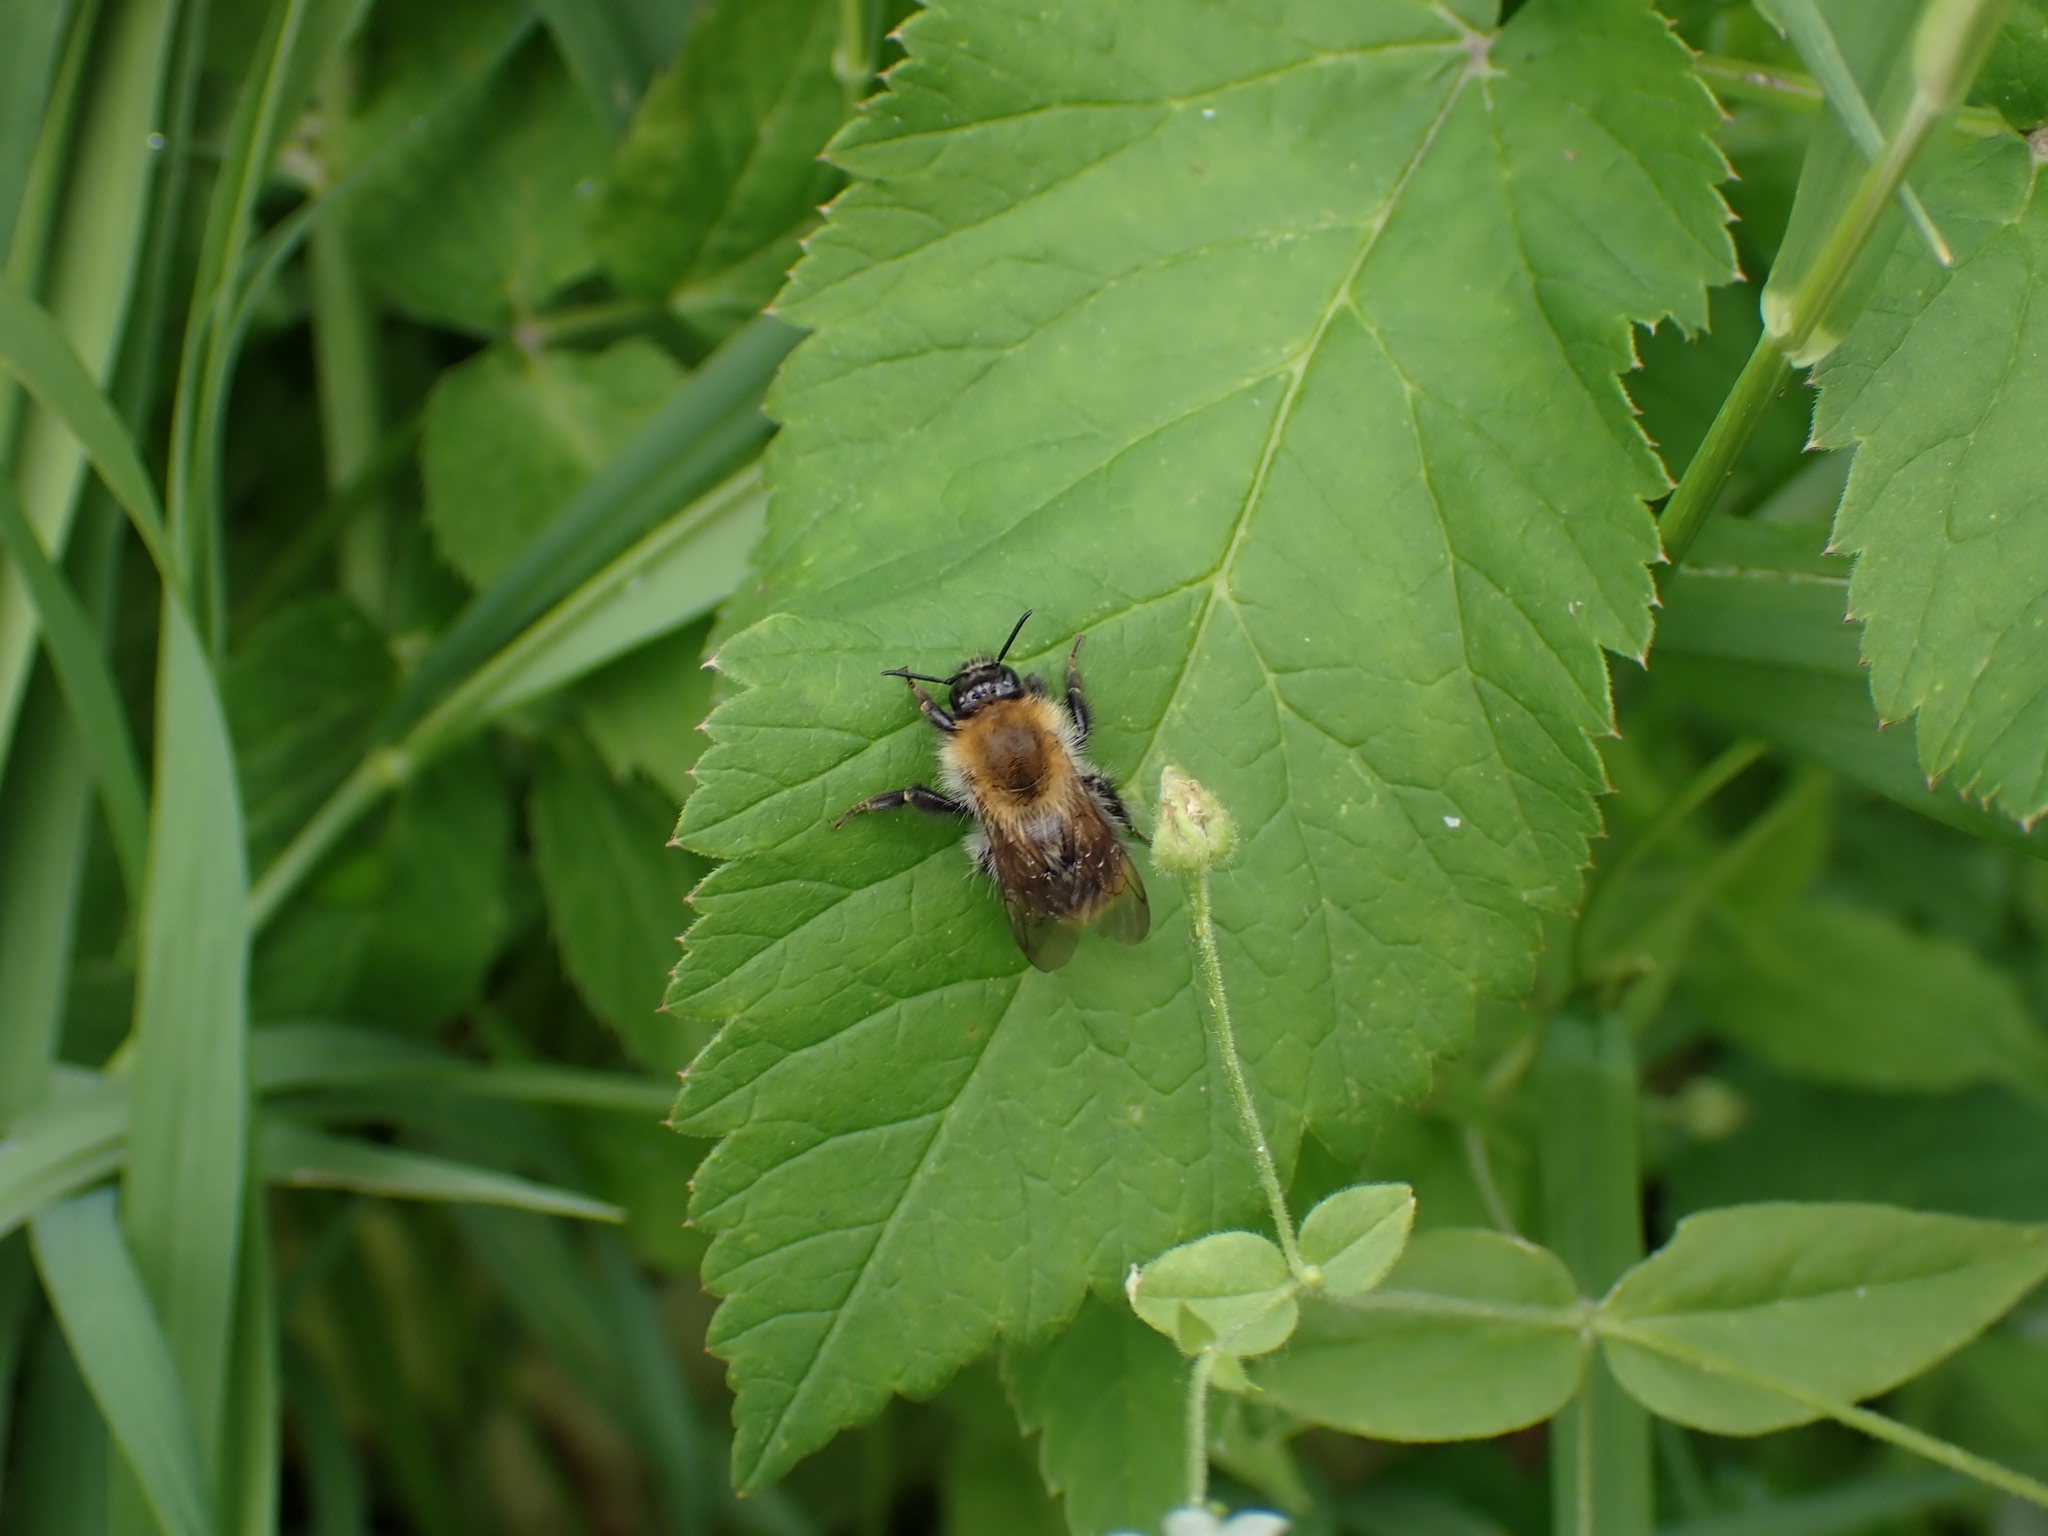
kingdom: Animalia
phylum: Arthropoda
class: Insecta
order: Hymenoptera
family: Apidae
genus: Bombus
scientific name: Bombus pascuorum
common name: Common carder bee
